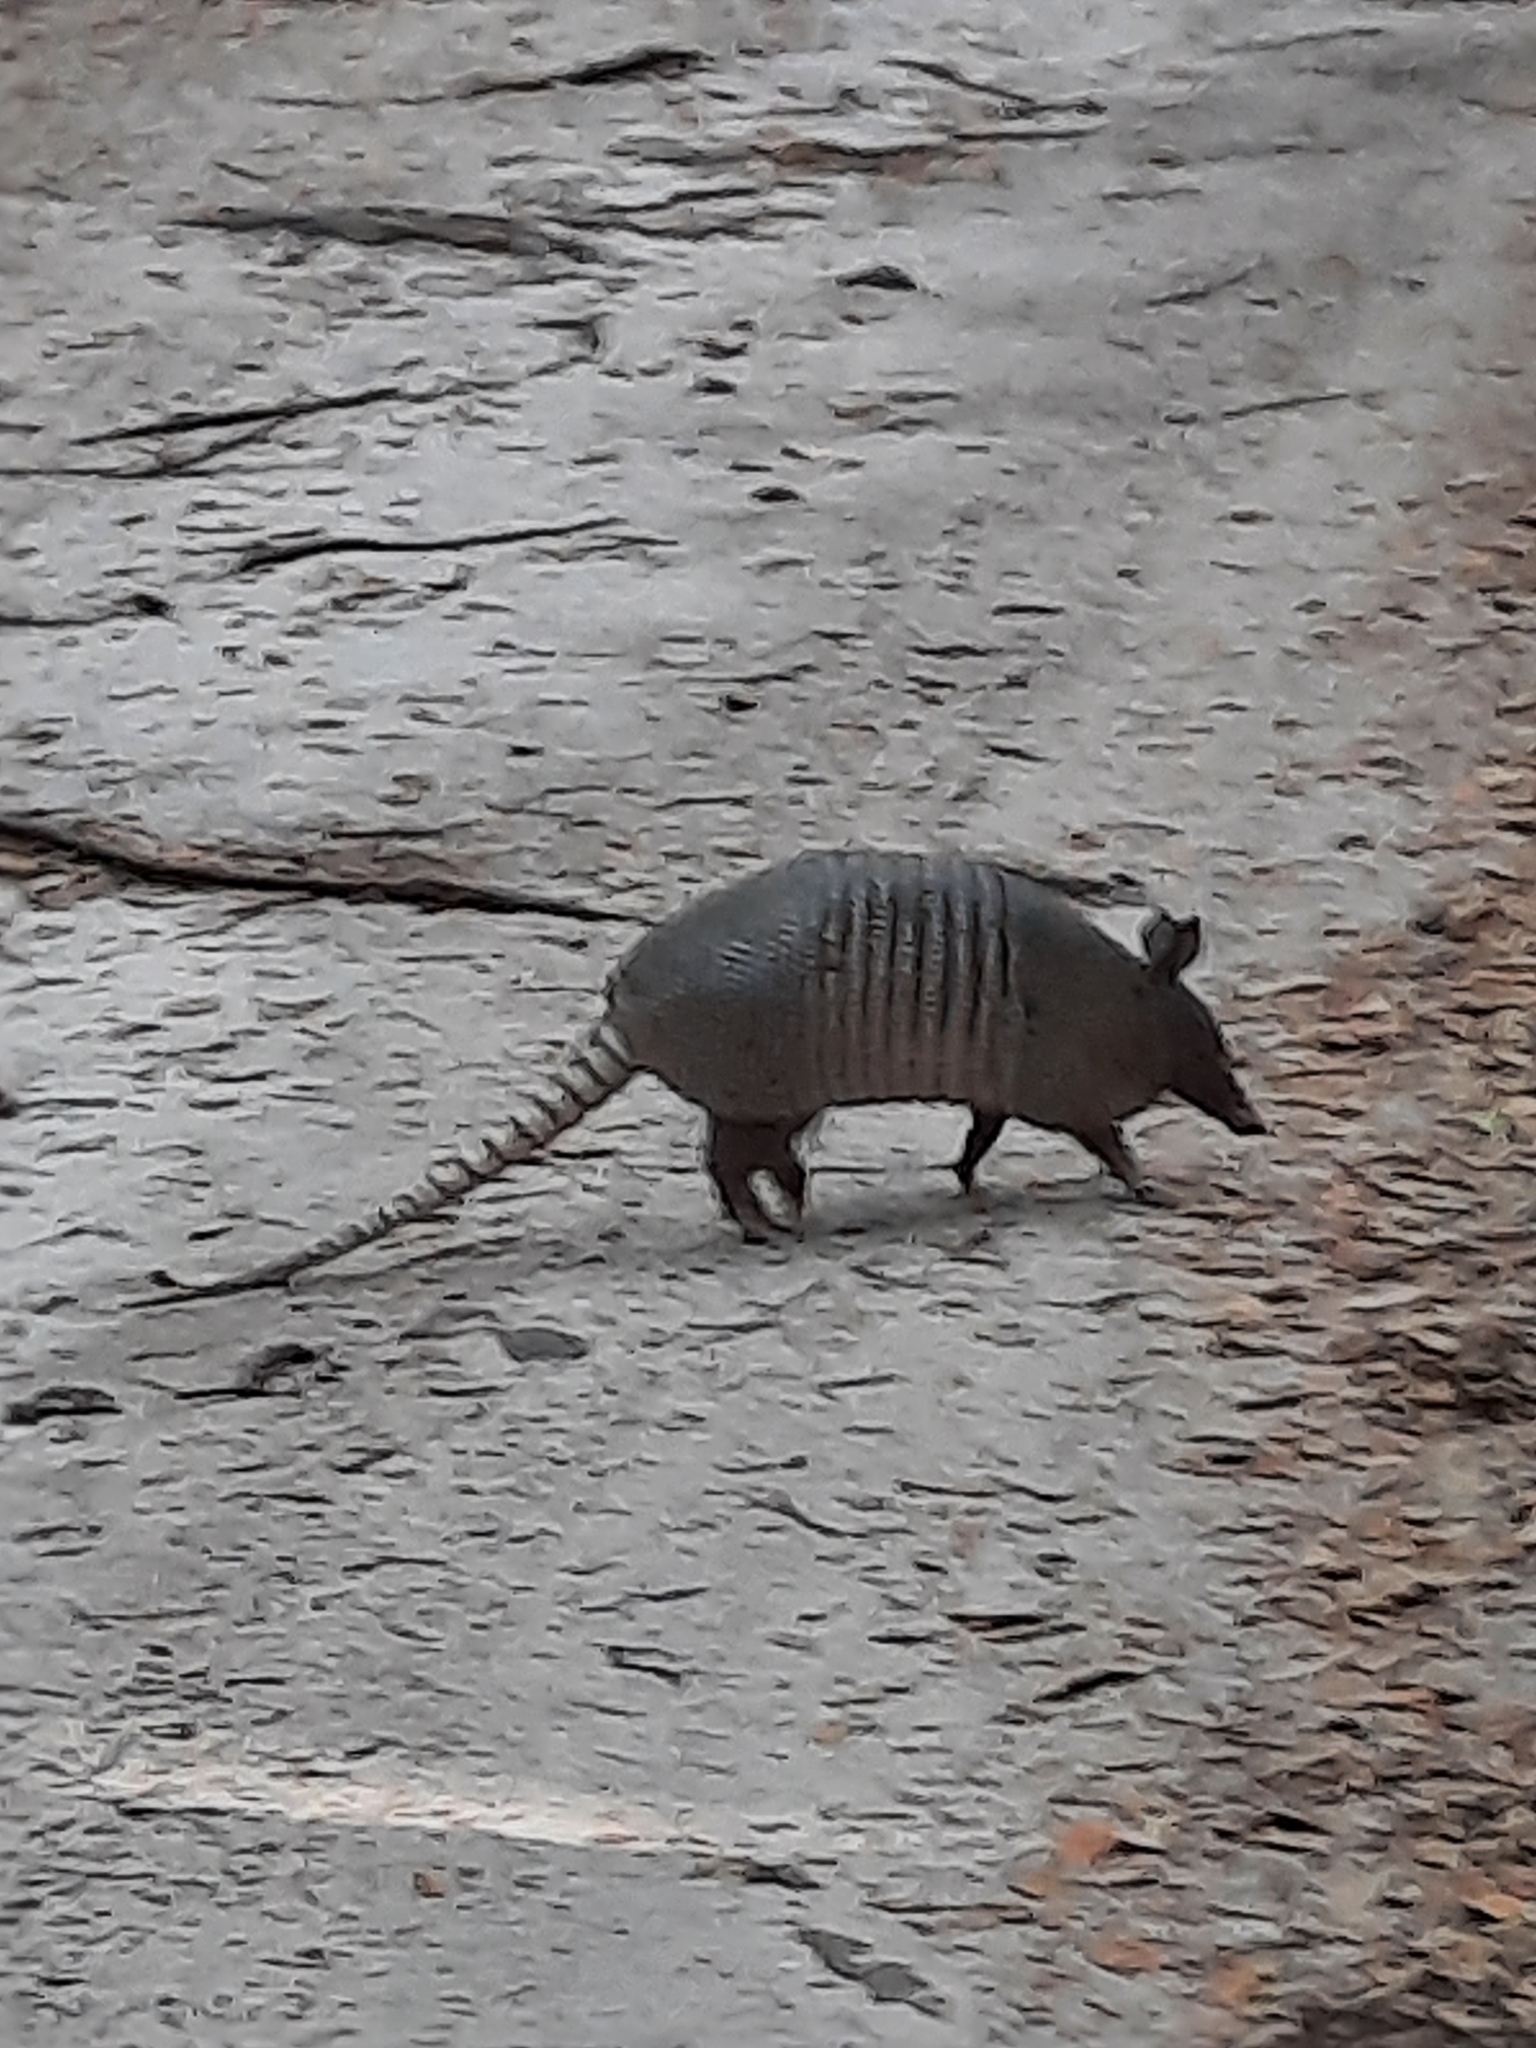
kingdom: Animalia
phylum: Chordata
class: Mammalia
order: Cingulata
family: Dasypodidae
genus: Dasypus
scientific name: Dasypus novemcinctus
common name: Nine-banded armadillo
